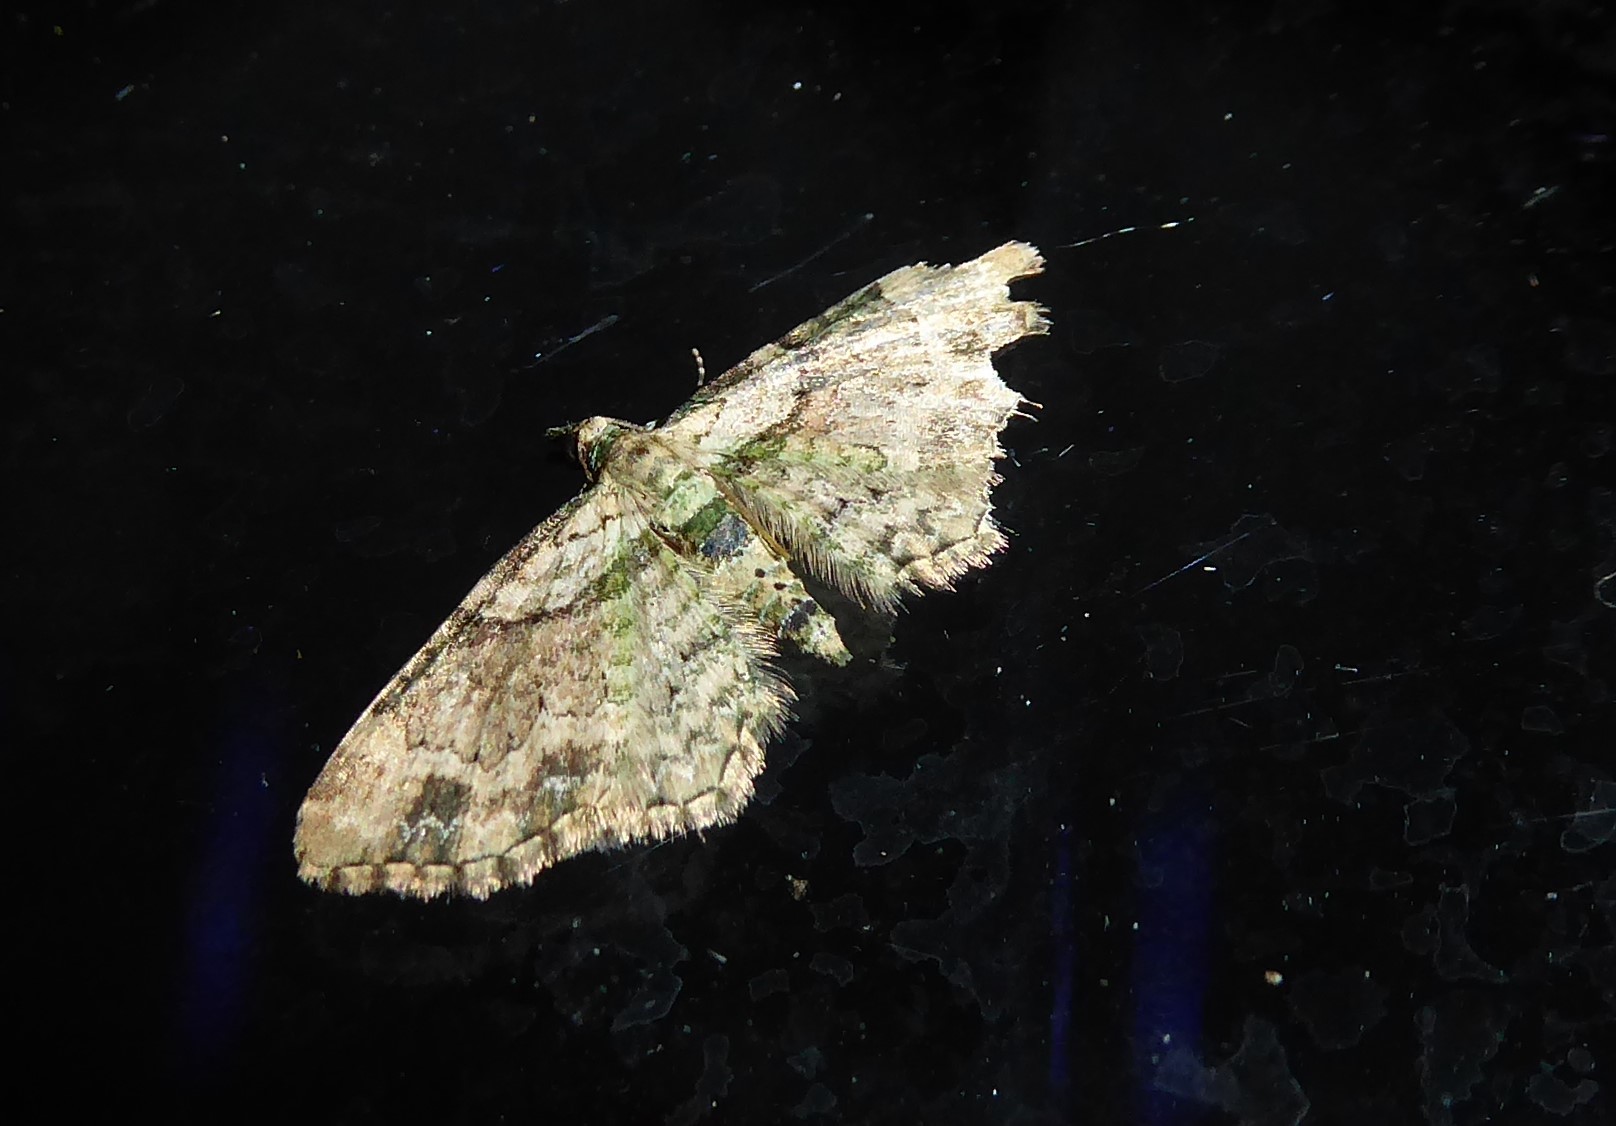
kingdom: Animalia
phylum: Arthropoda
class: Insecta
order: Lepidoptera
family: Geometridae
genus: Chloroclystis
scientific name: Chloroclystis
